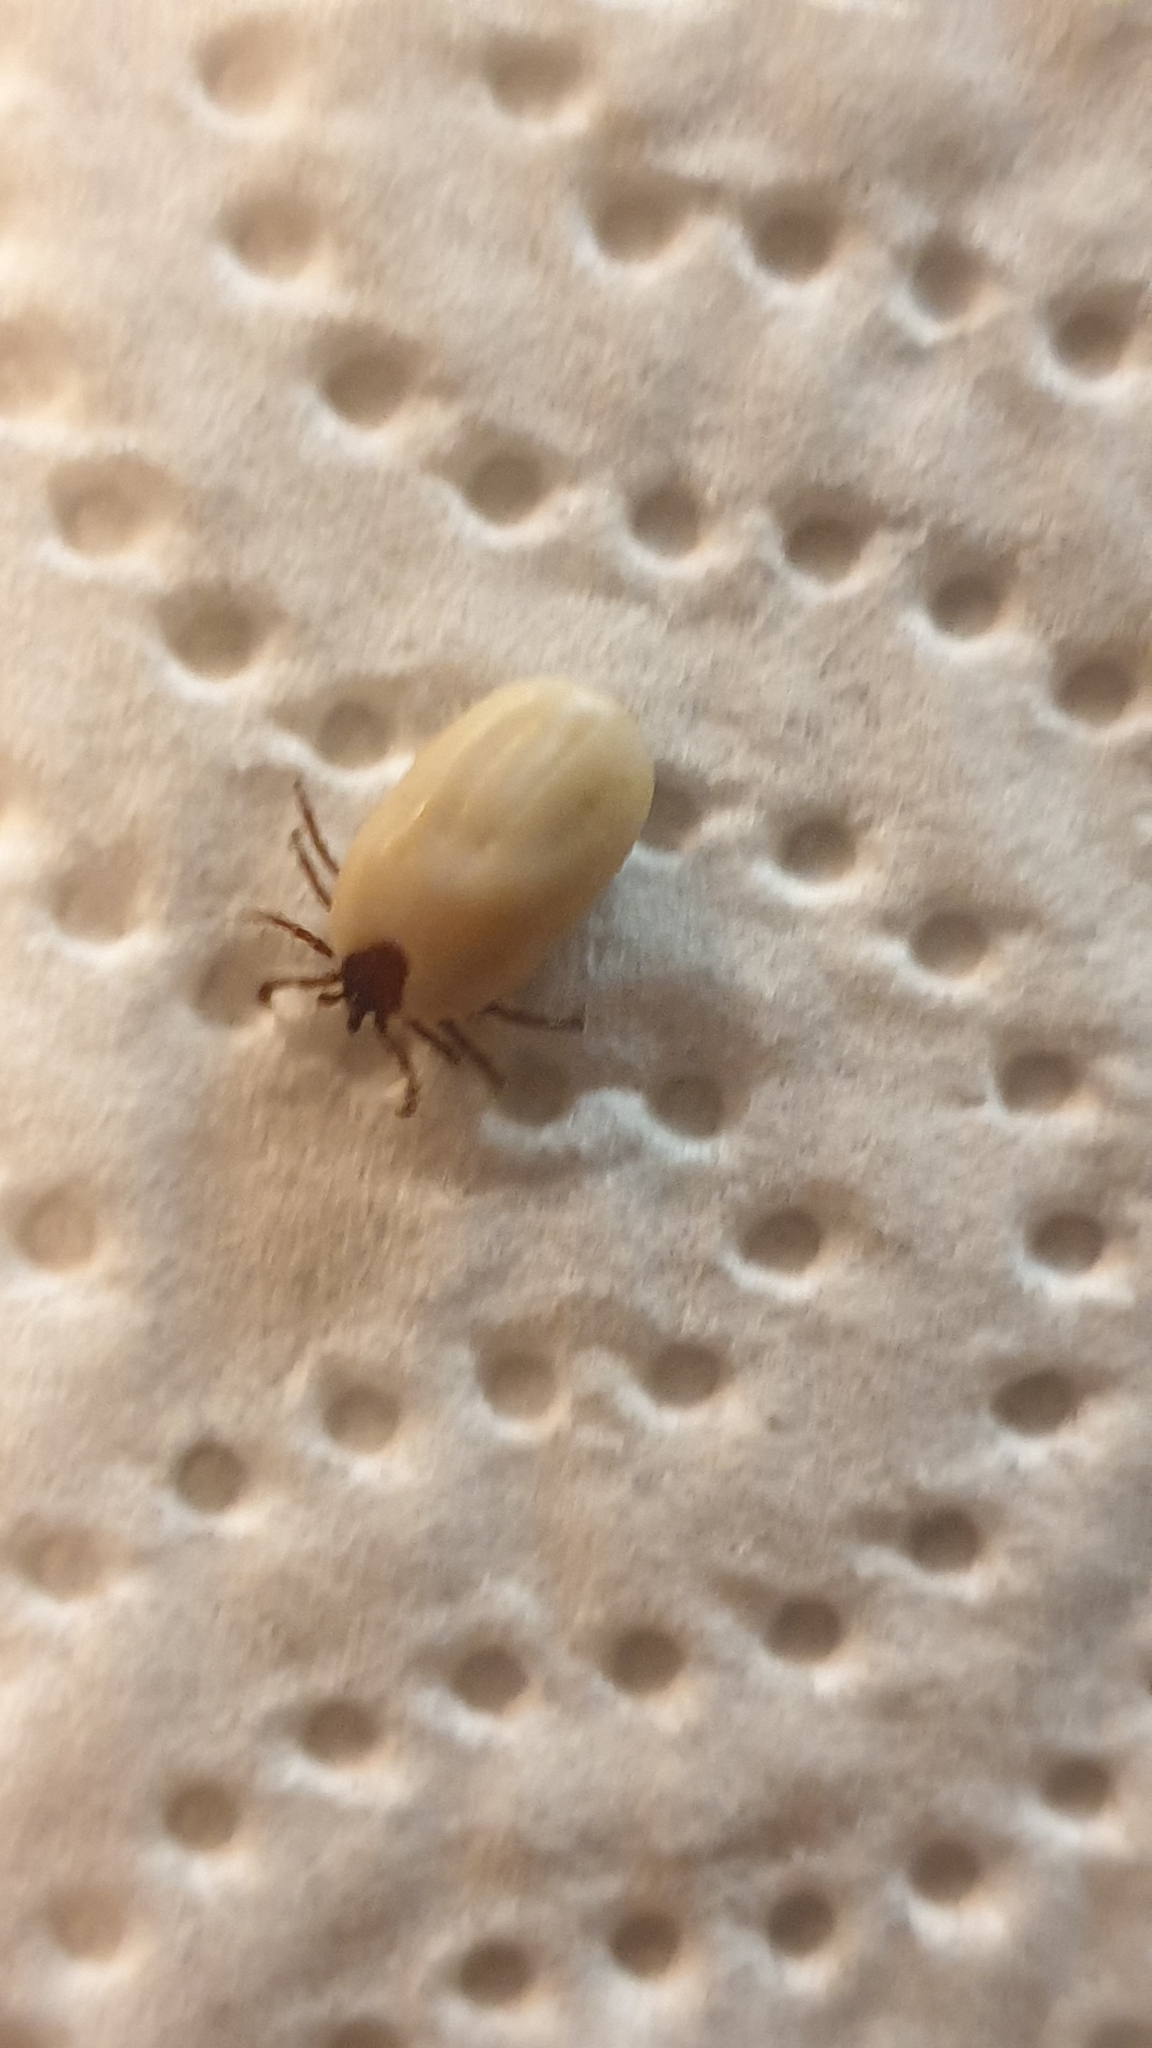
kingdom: Animalia
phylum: Arthropoda
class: Arachnida
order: Ixodida
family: Ixodidae
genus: Ixodes
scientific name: Ixodes hexagonus
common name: Hedgehog tick
